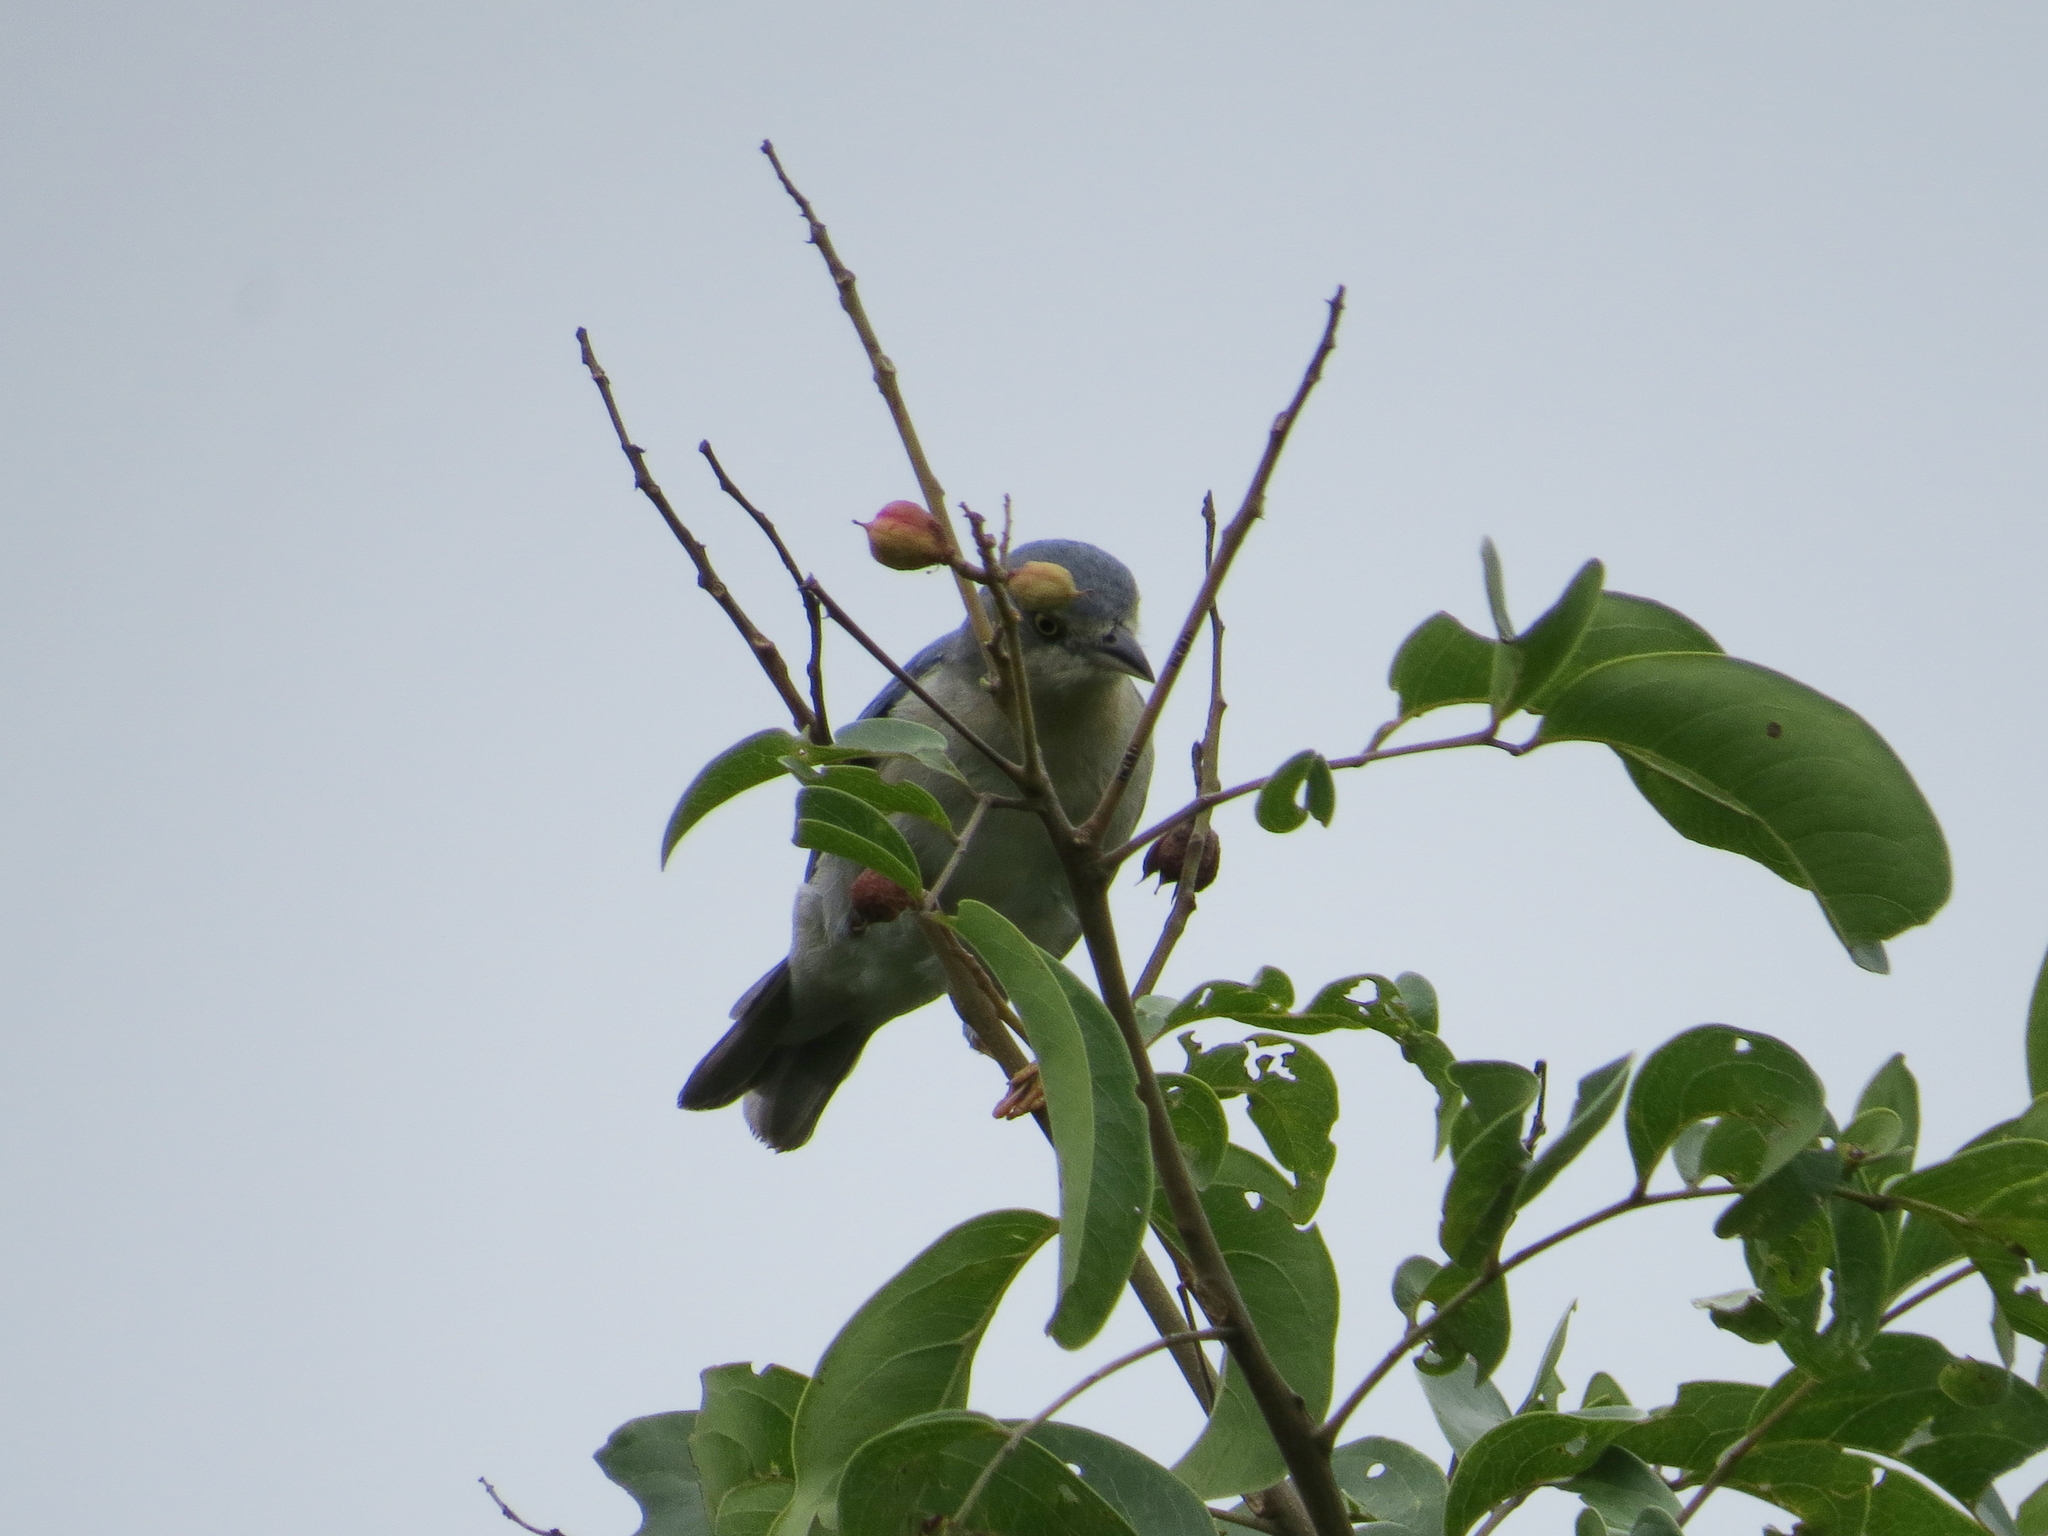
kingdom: Animalia
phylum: Chordata
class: Aves
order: Passeriformes
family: Thraupidae
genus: Nemosia
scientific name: Nemosia pileata
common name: Hooded tanager
